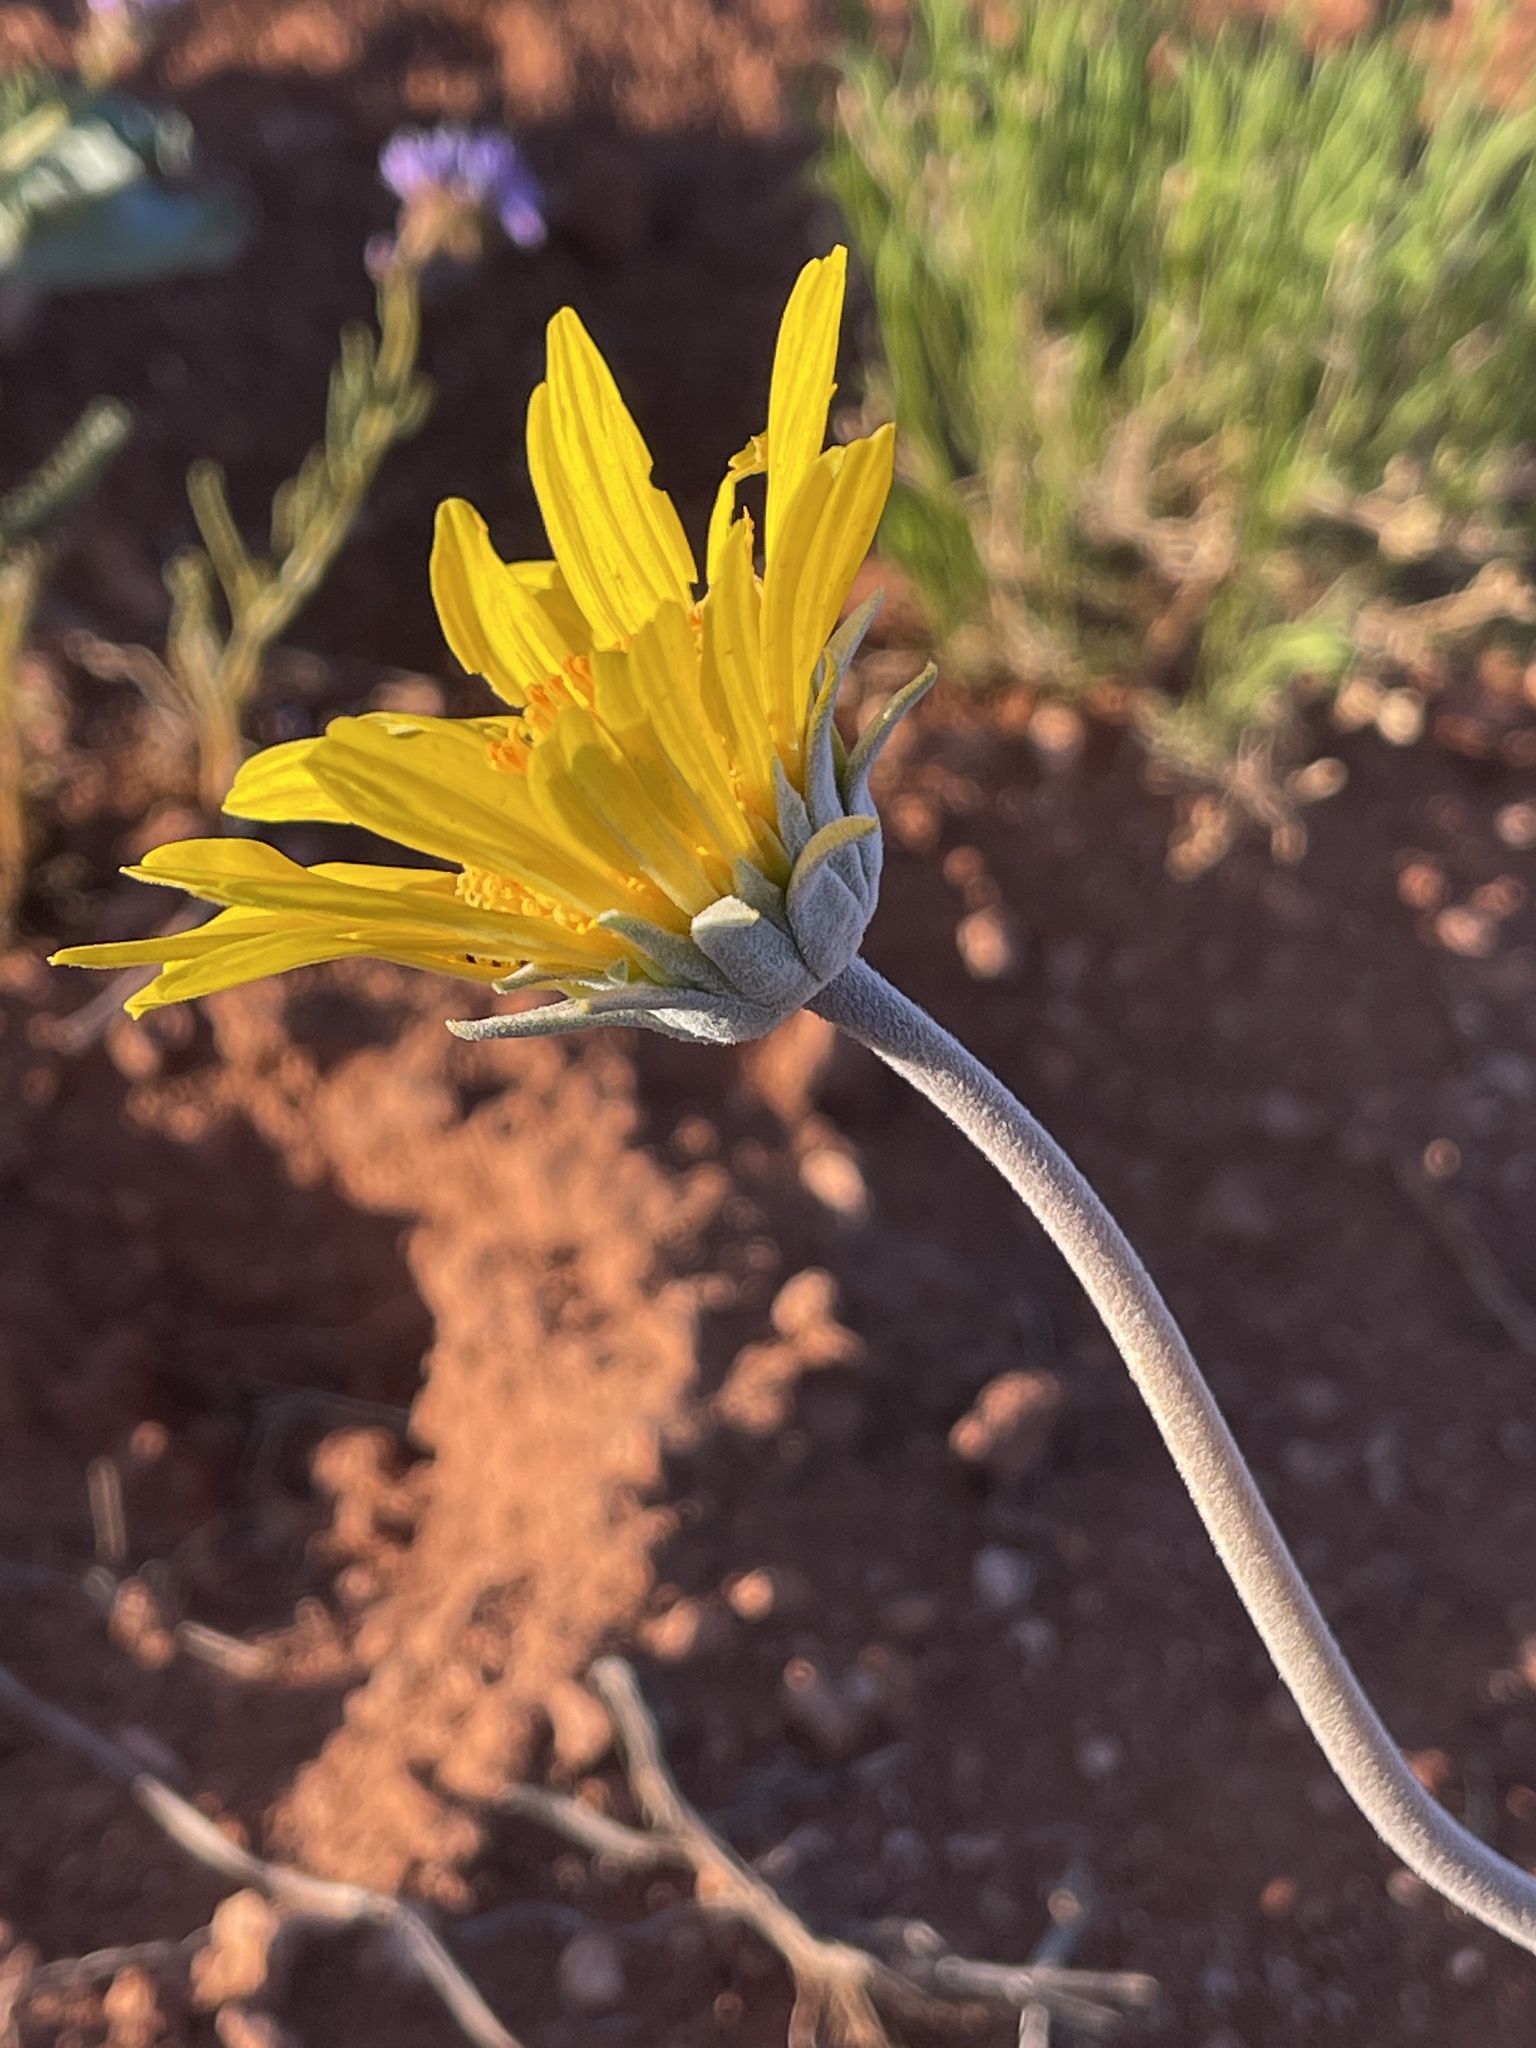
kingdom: Plantae
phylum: Tracheophyta
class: Magnoliopsida
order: Asterales
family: Asteraceae
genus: Enceliopsis
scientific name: Enceliopsis nudicaulis
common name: Naked-stem daisy
